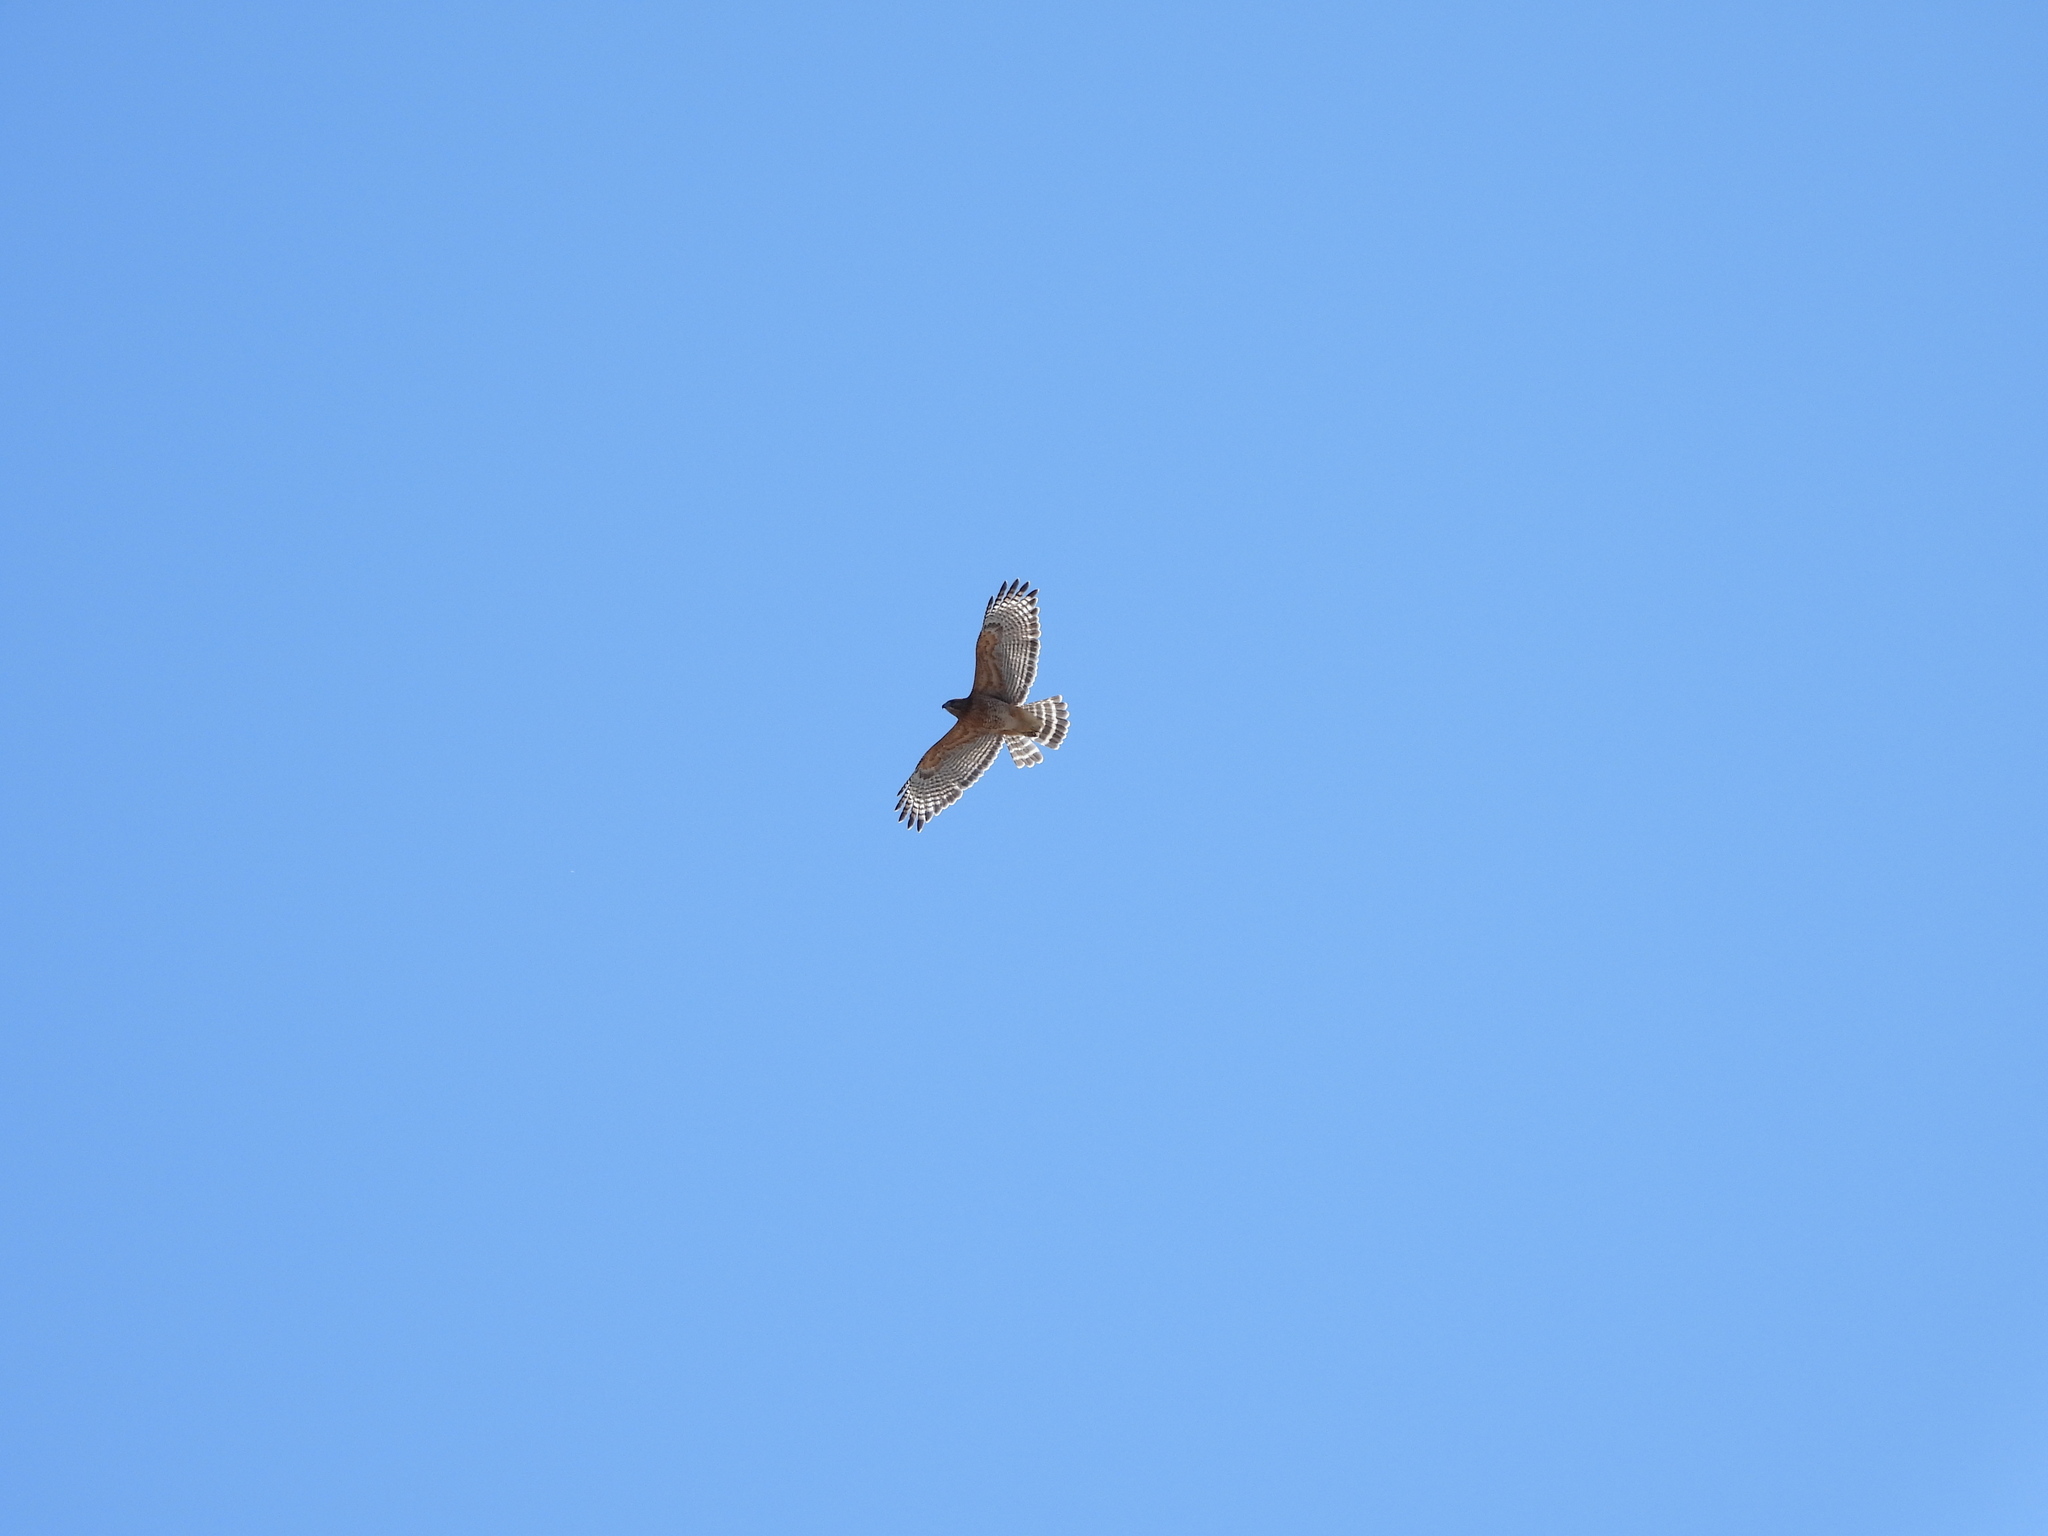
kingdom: Animalia
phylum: Chordata
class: Aves
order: Accipitriformes
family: Accipitridae
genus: Buteo
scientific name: Buteo lineatus
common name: Red-shouldered hawk
